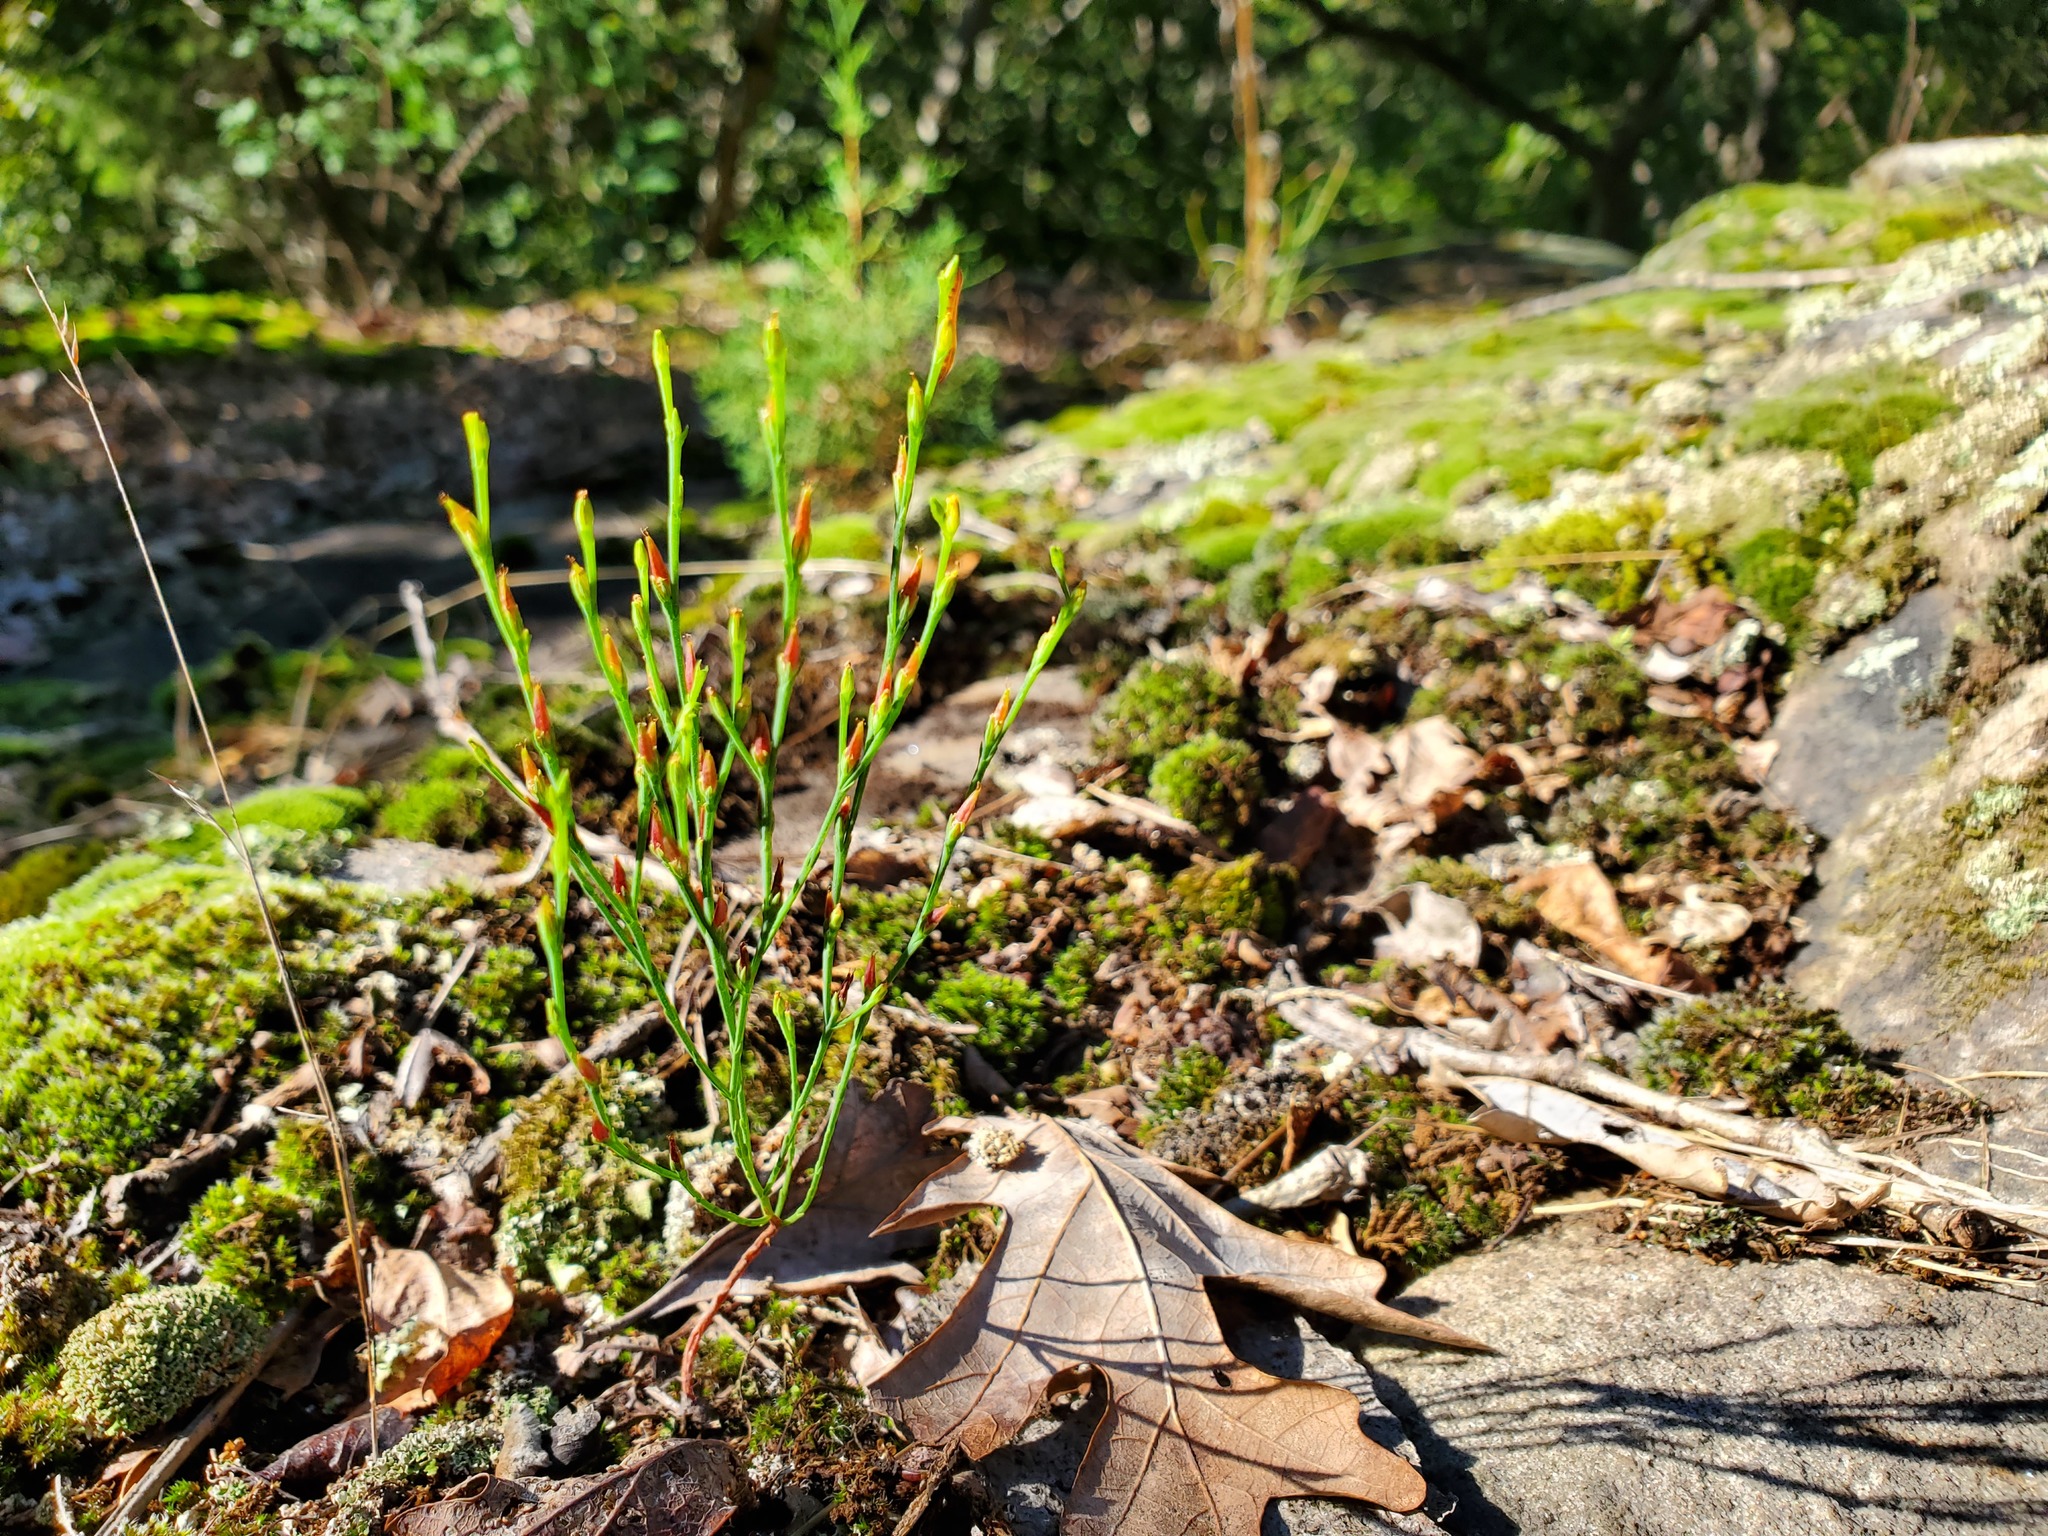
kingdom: Plantae
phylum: Tracheophyta
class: Magnoliopsida
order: Malpighiales
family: Hypericaceae
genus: Hypericum
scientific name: Hypericum gentianoides
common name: Gentian-leaved st. john's-wort
